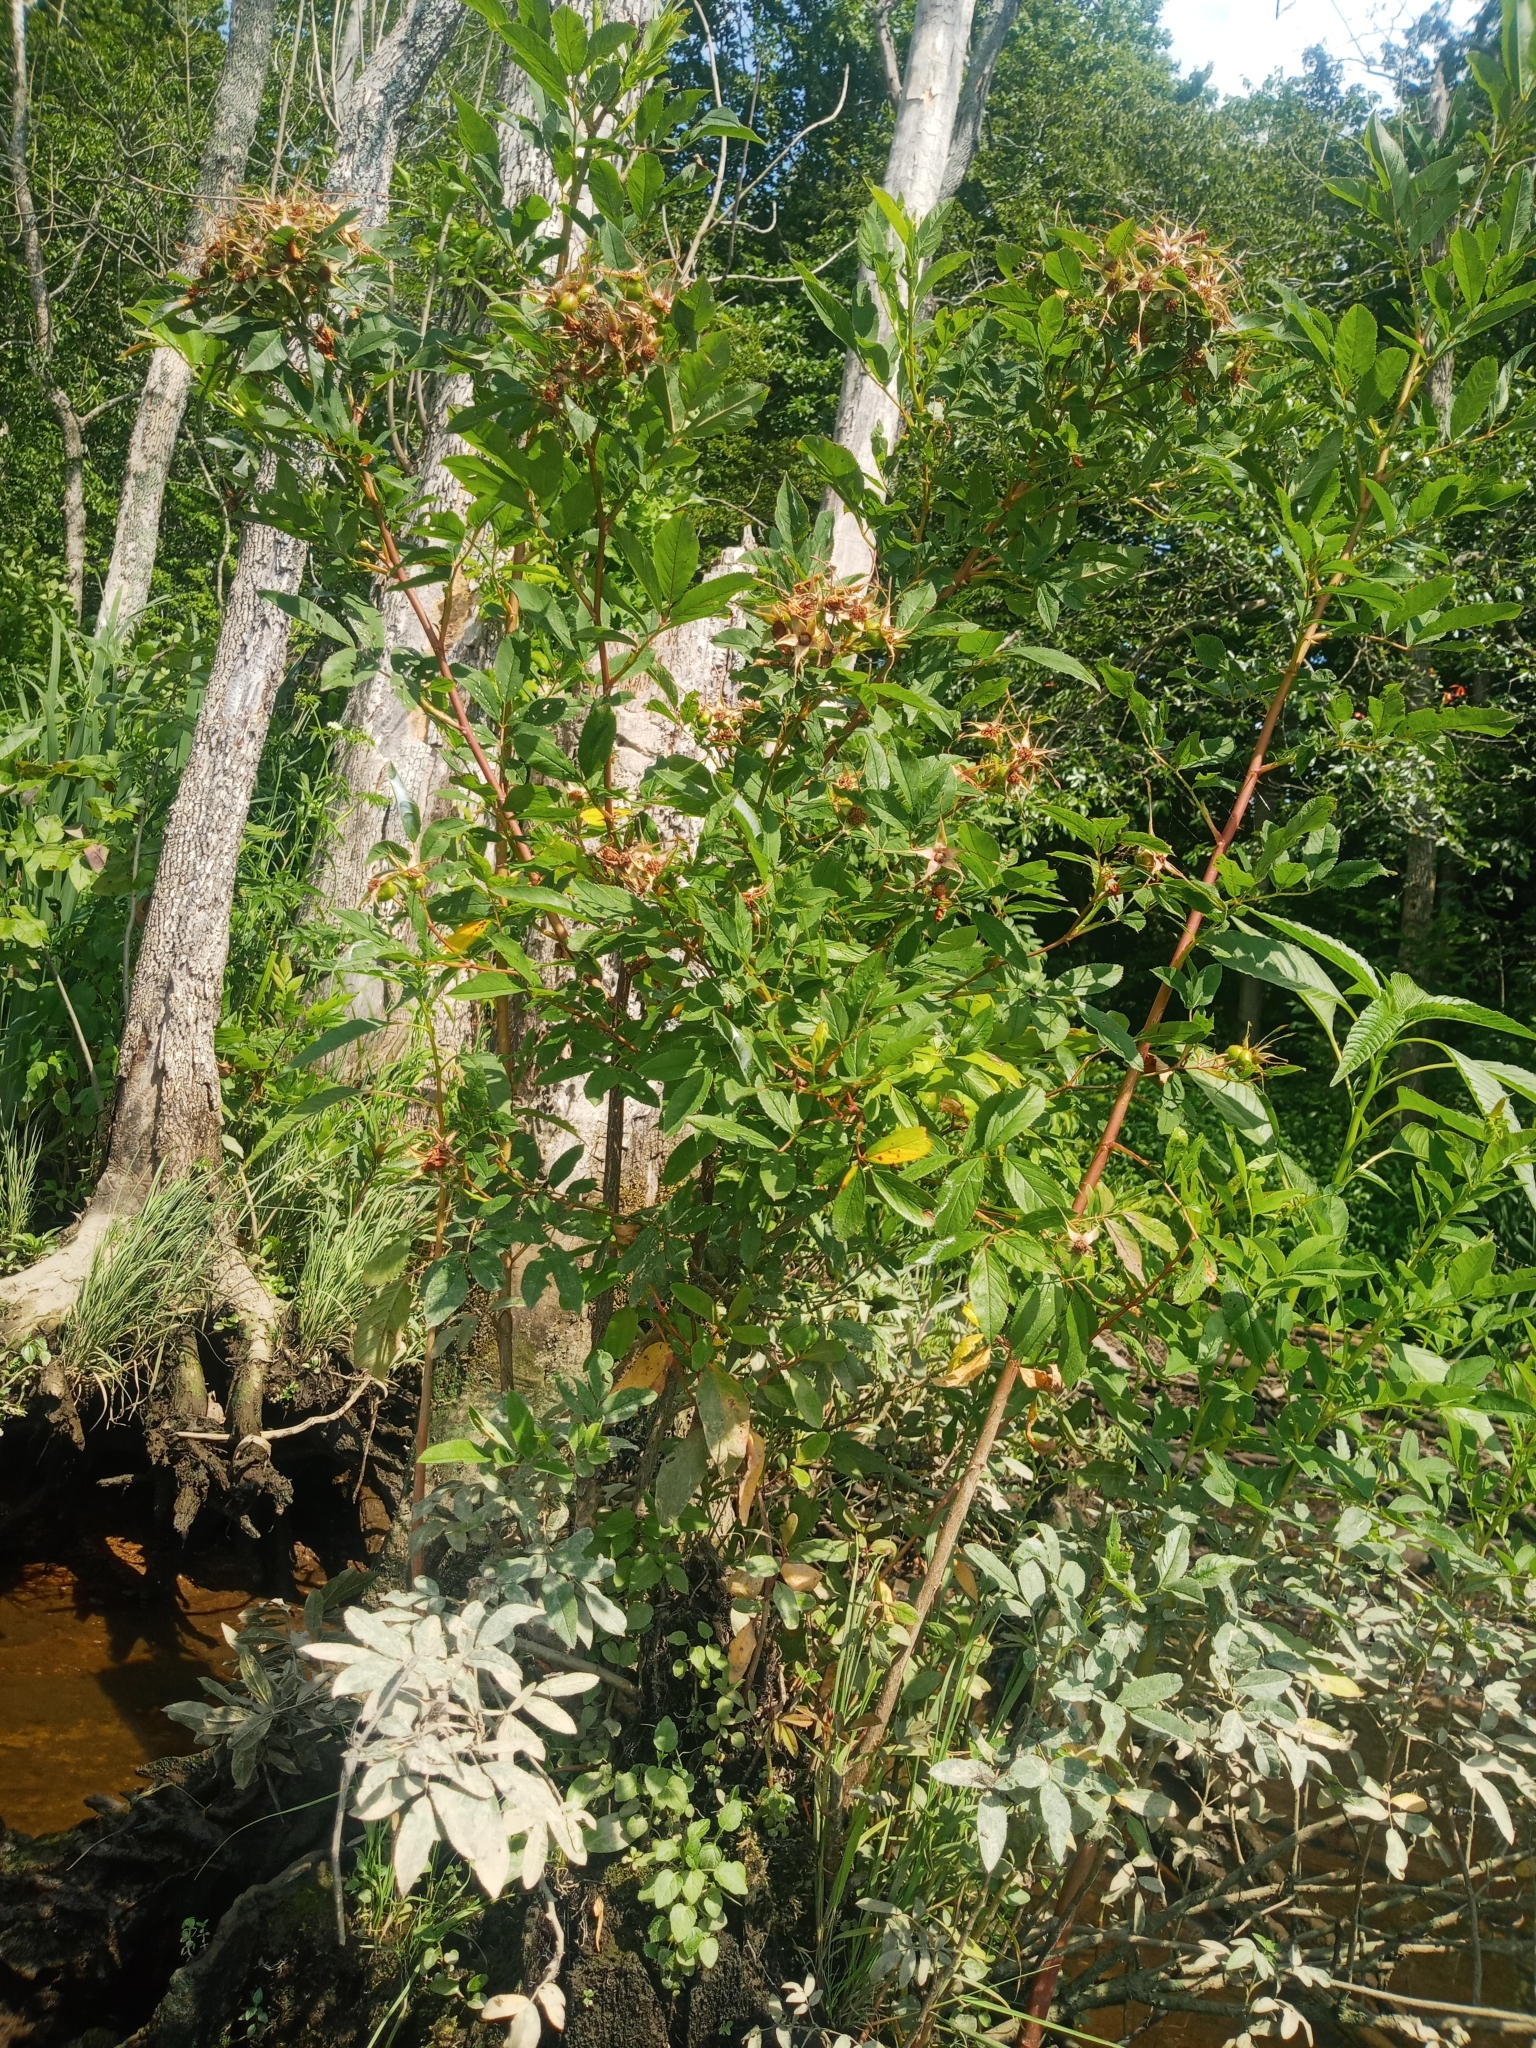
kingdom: Plantae
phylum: Tracheophyta
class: Magnoliopsida
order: Rosales
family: Rosaceae
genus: Rosa
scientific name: Rosa palustris
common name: Swamp rose
